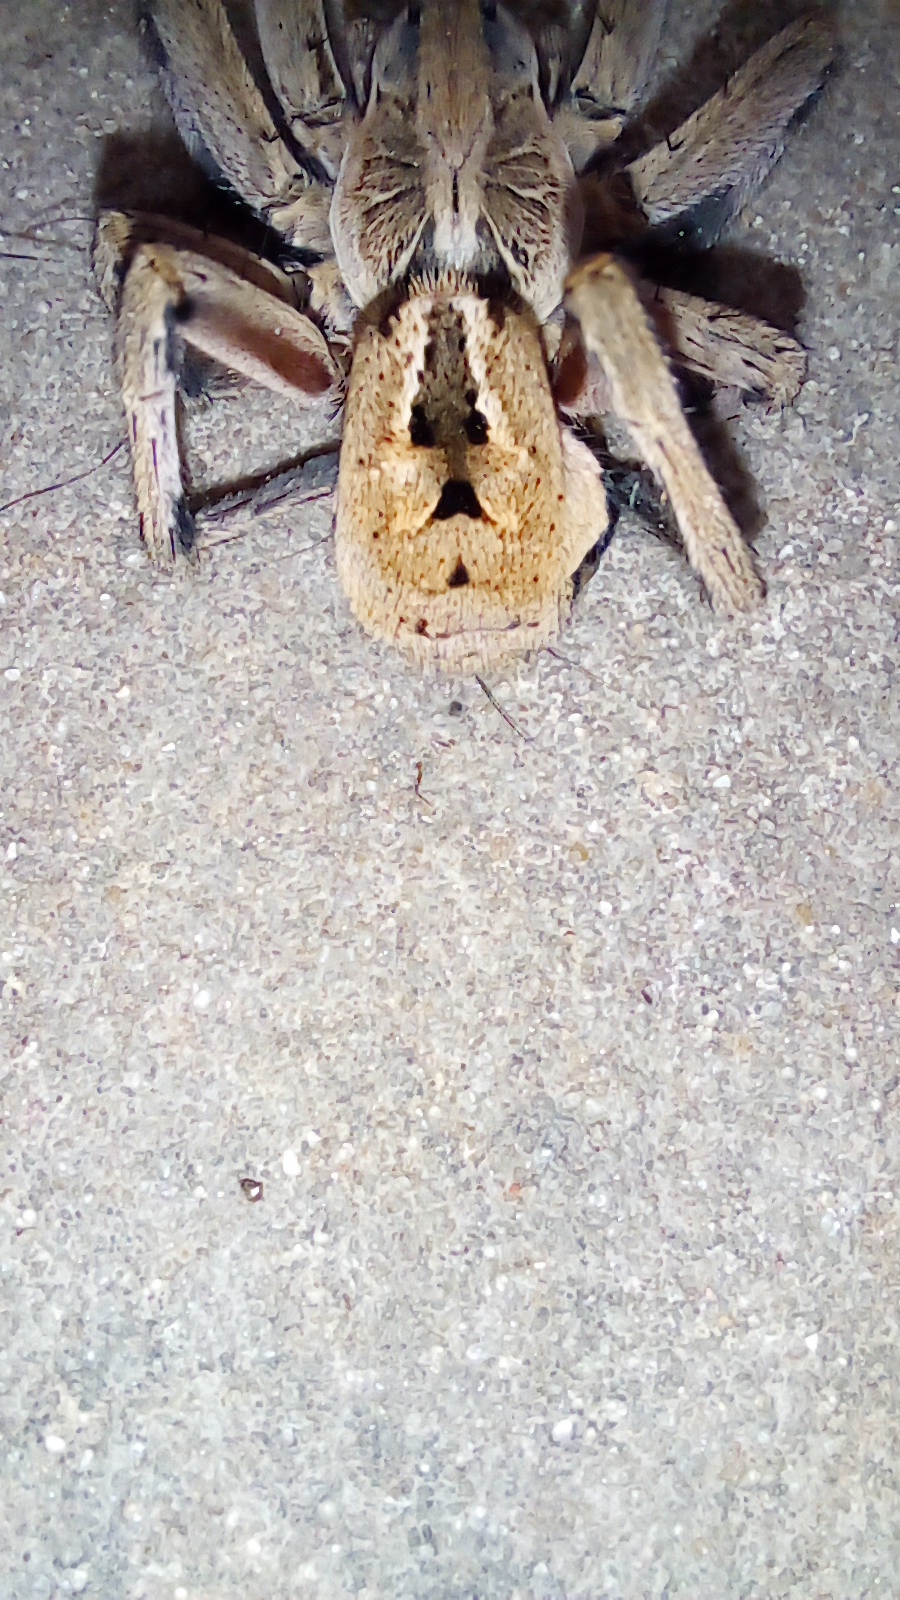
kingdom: Animalia
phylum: Arthropoda
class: Arachnida
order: Araneae
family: Lycosidae
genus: Lycosa
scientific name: Lycosa erythrognatha
